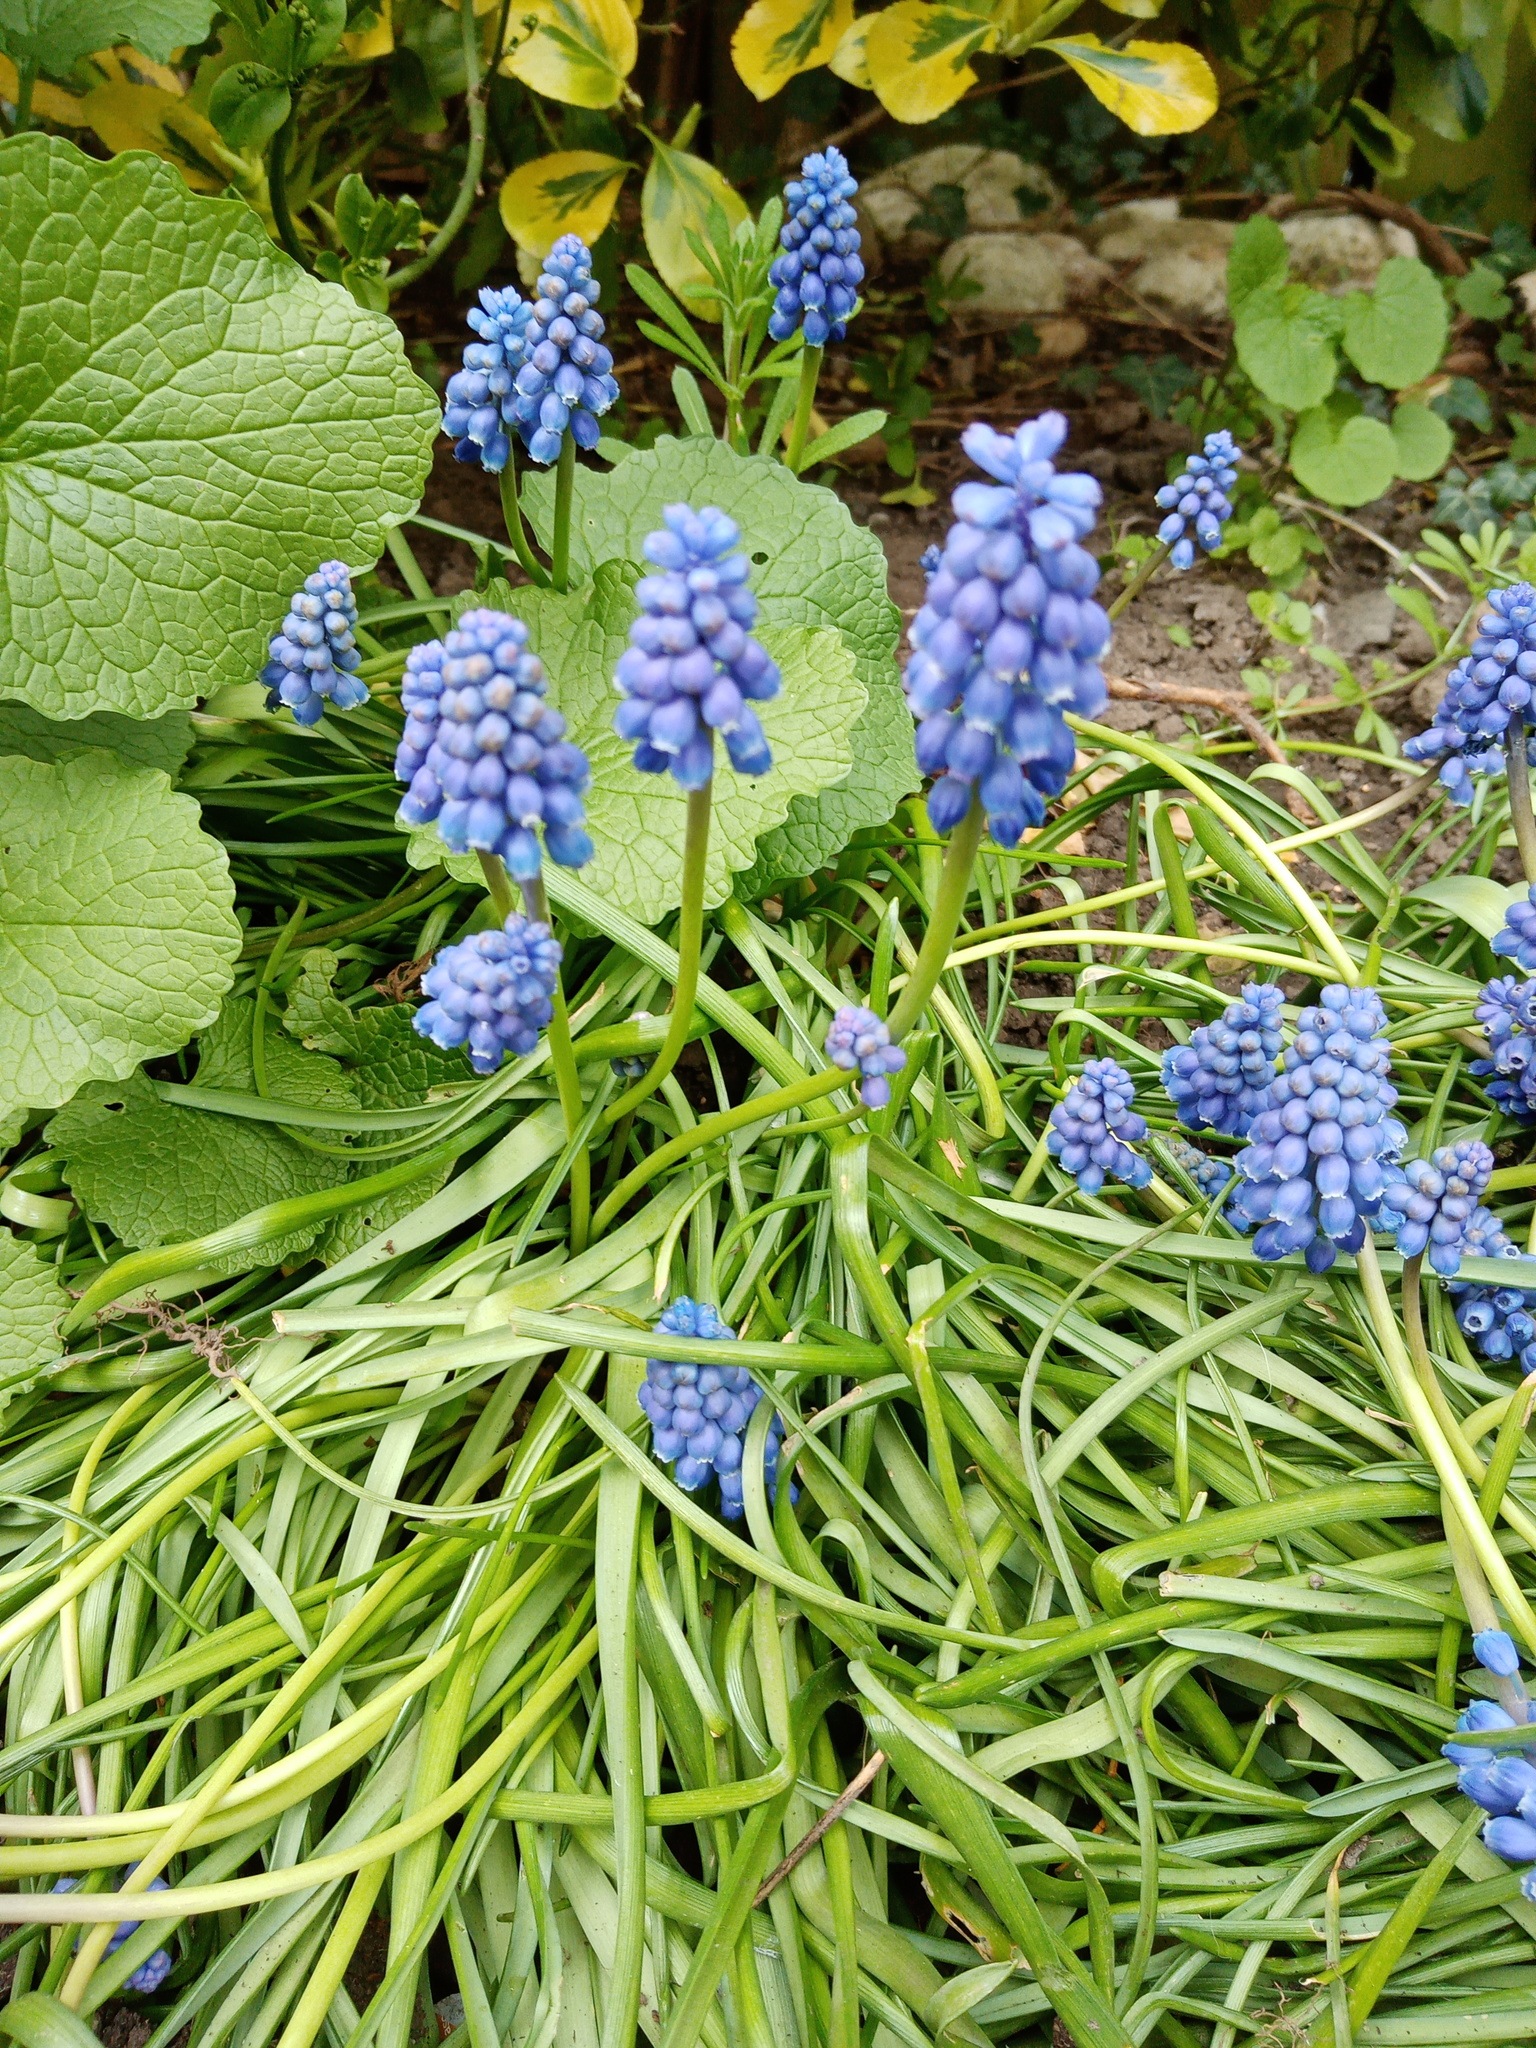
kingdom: Plantae
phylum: Tracheophyta
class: Liliopsida
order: Asparagales
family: Asparagaceae
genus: Muscari
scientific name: Muscari armeniacum
